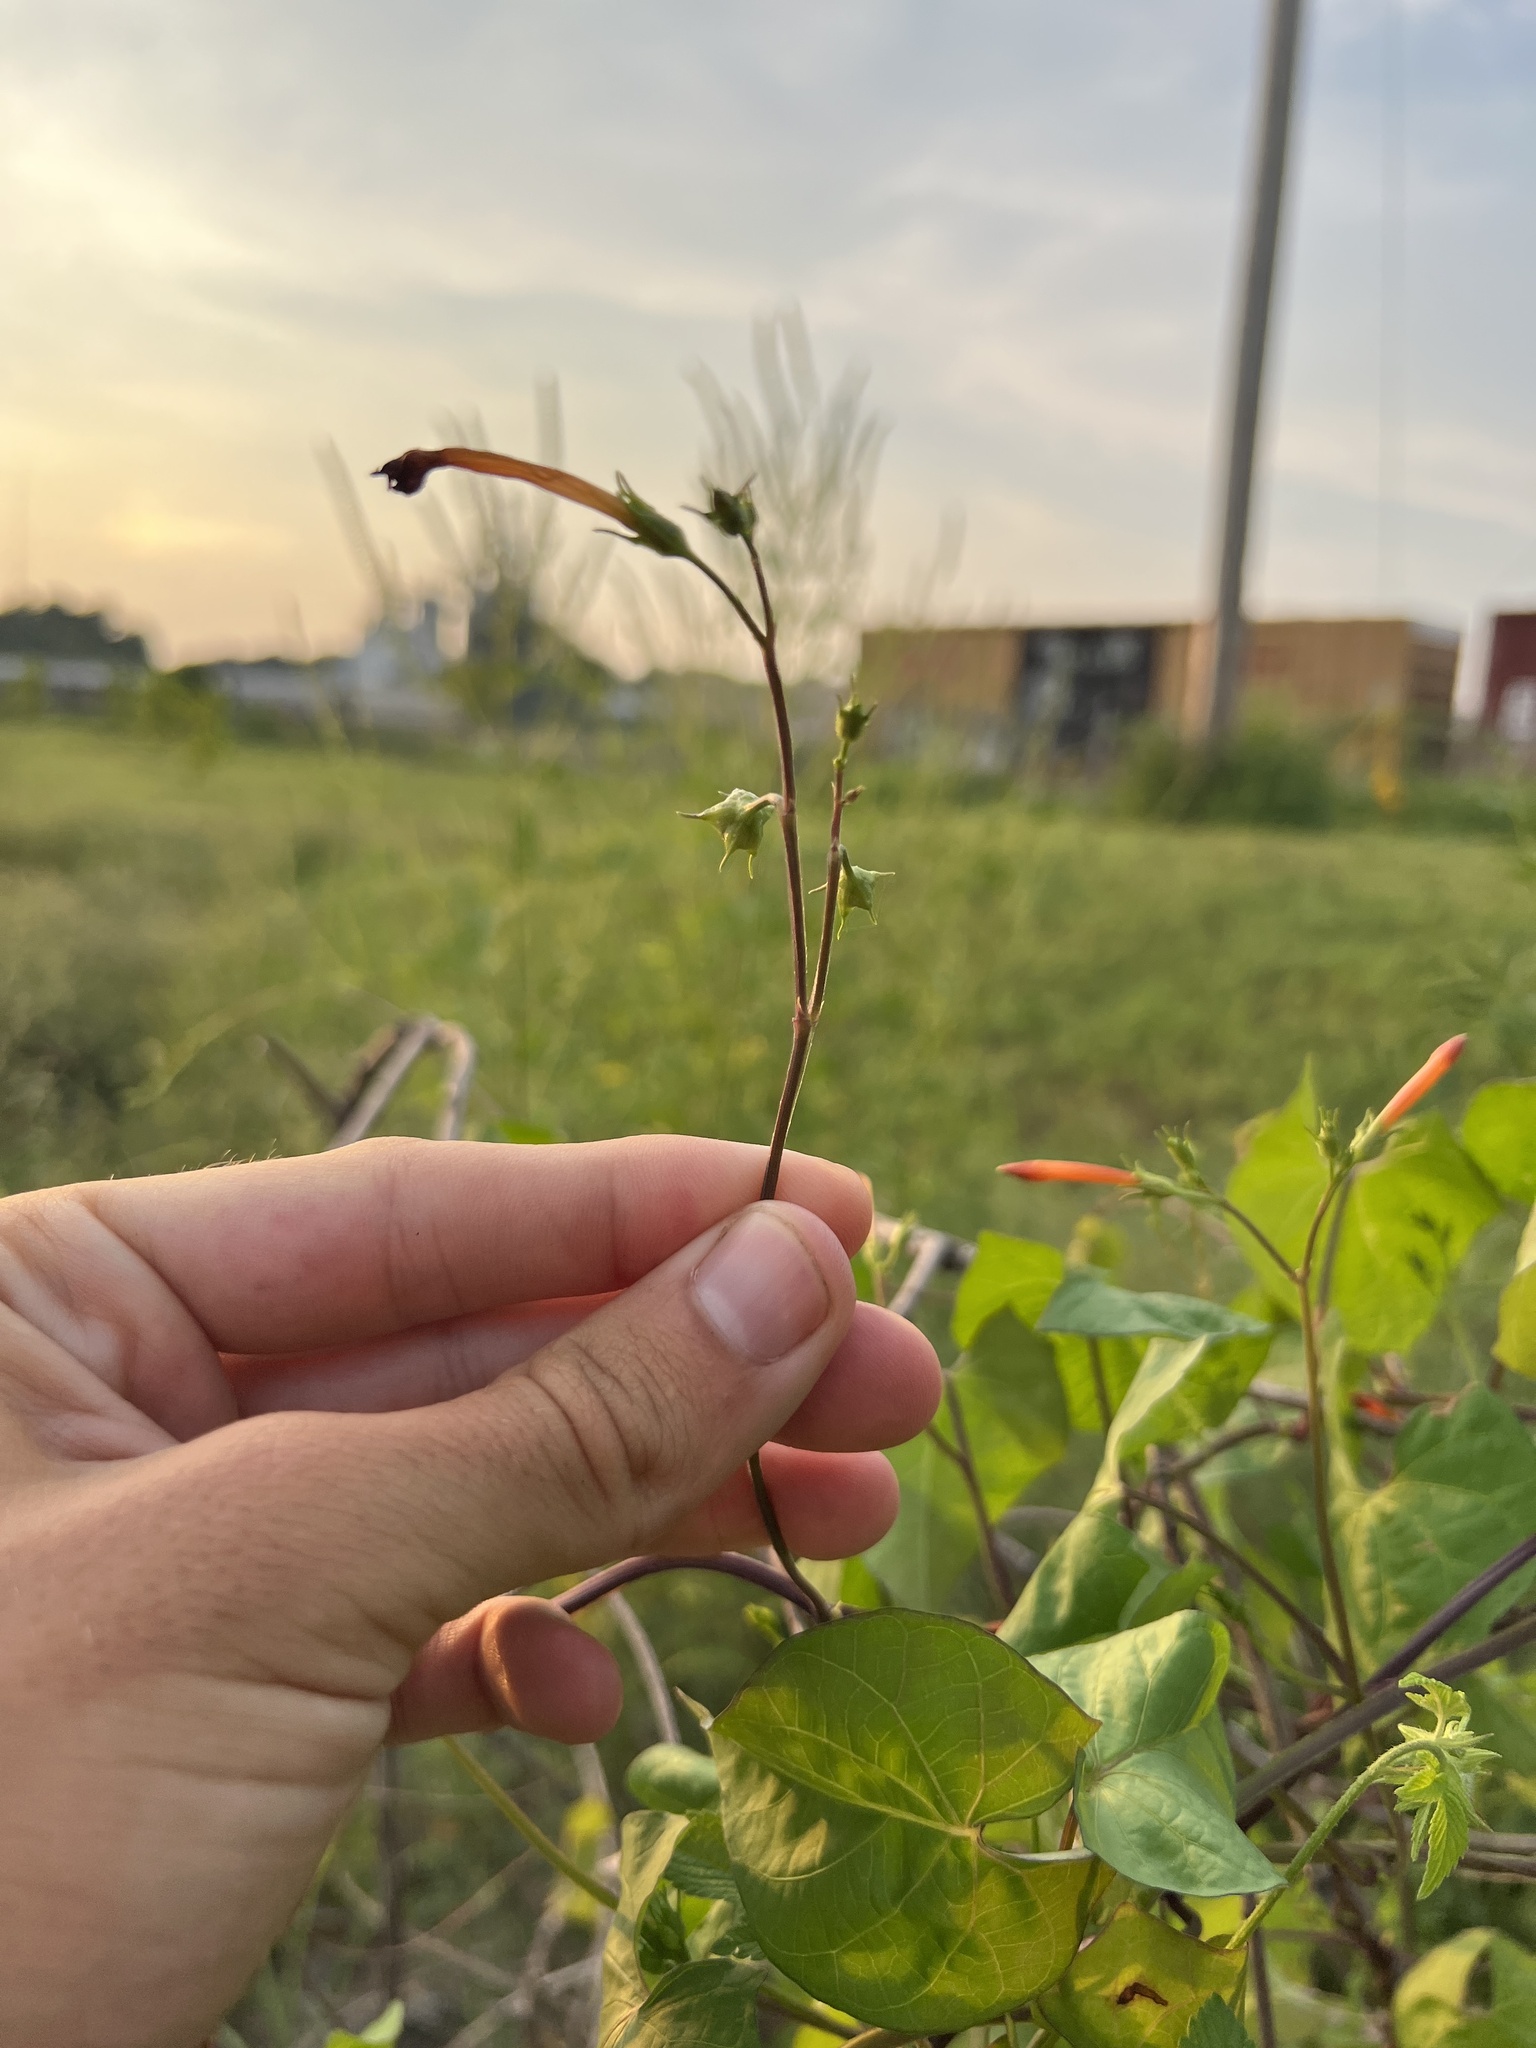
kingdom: Plantae
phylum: Tracheophyta
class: Magnoliopsida
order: Solanales
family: Convolvulaceae
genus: Ipomoea
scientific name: Ipomoea coccinea
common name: Red morning-glory
